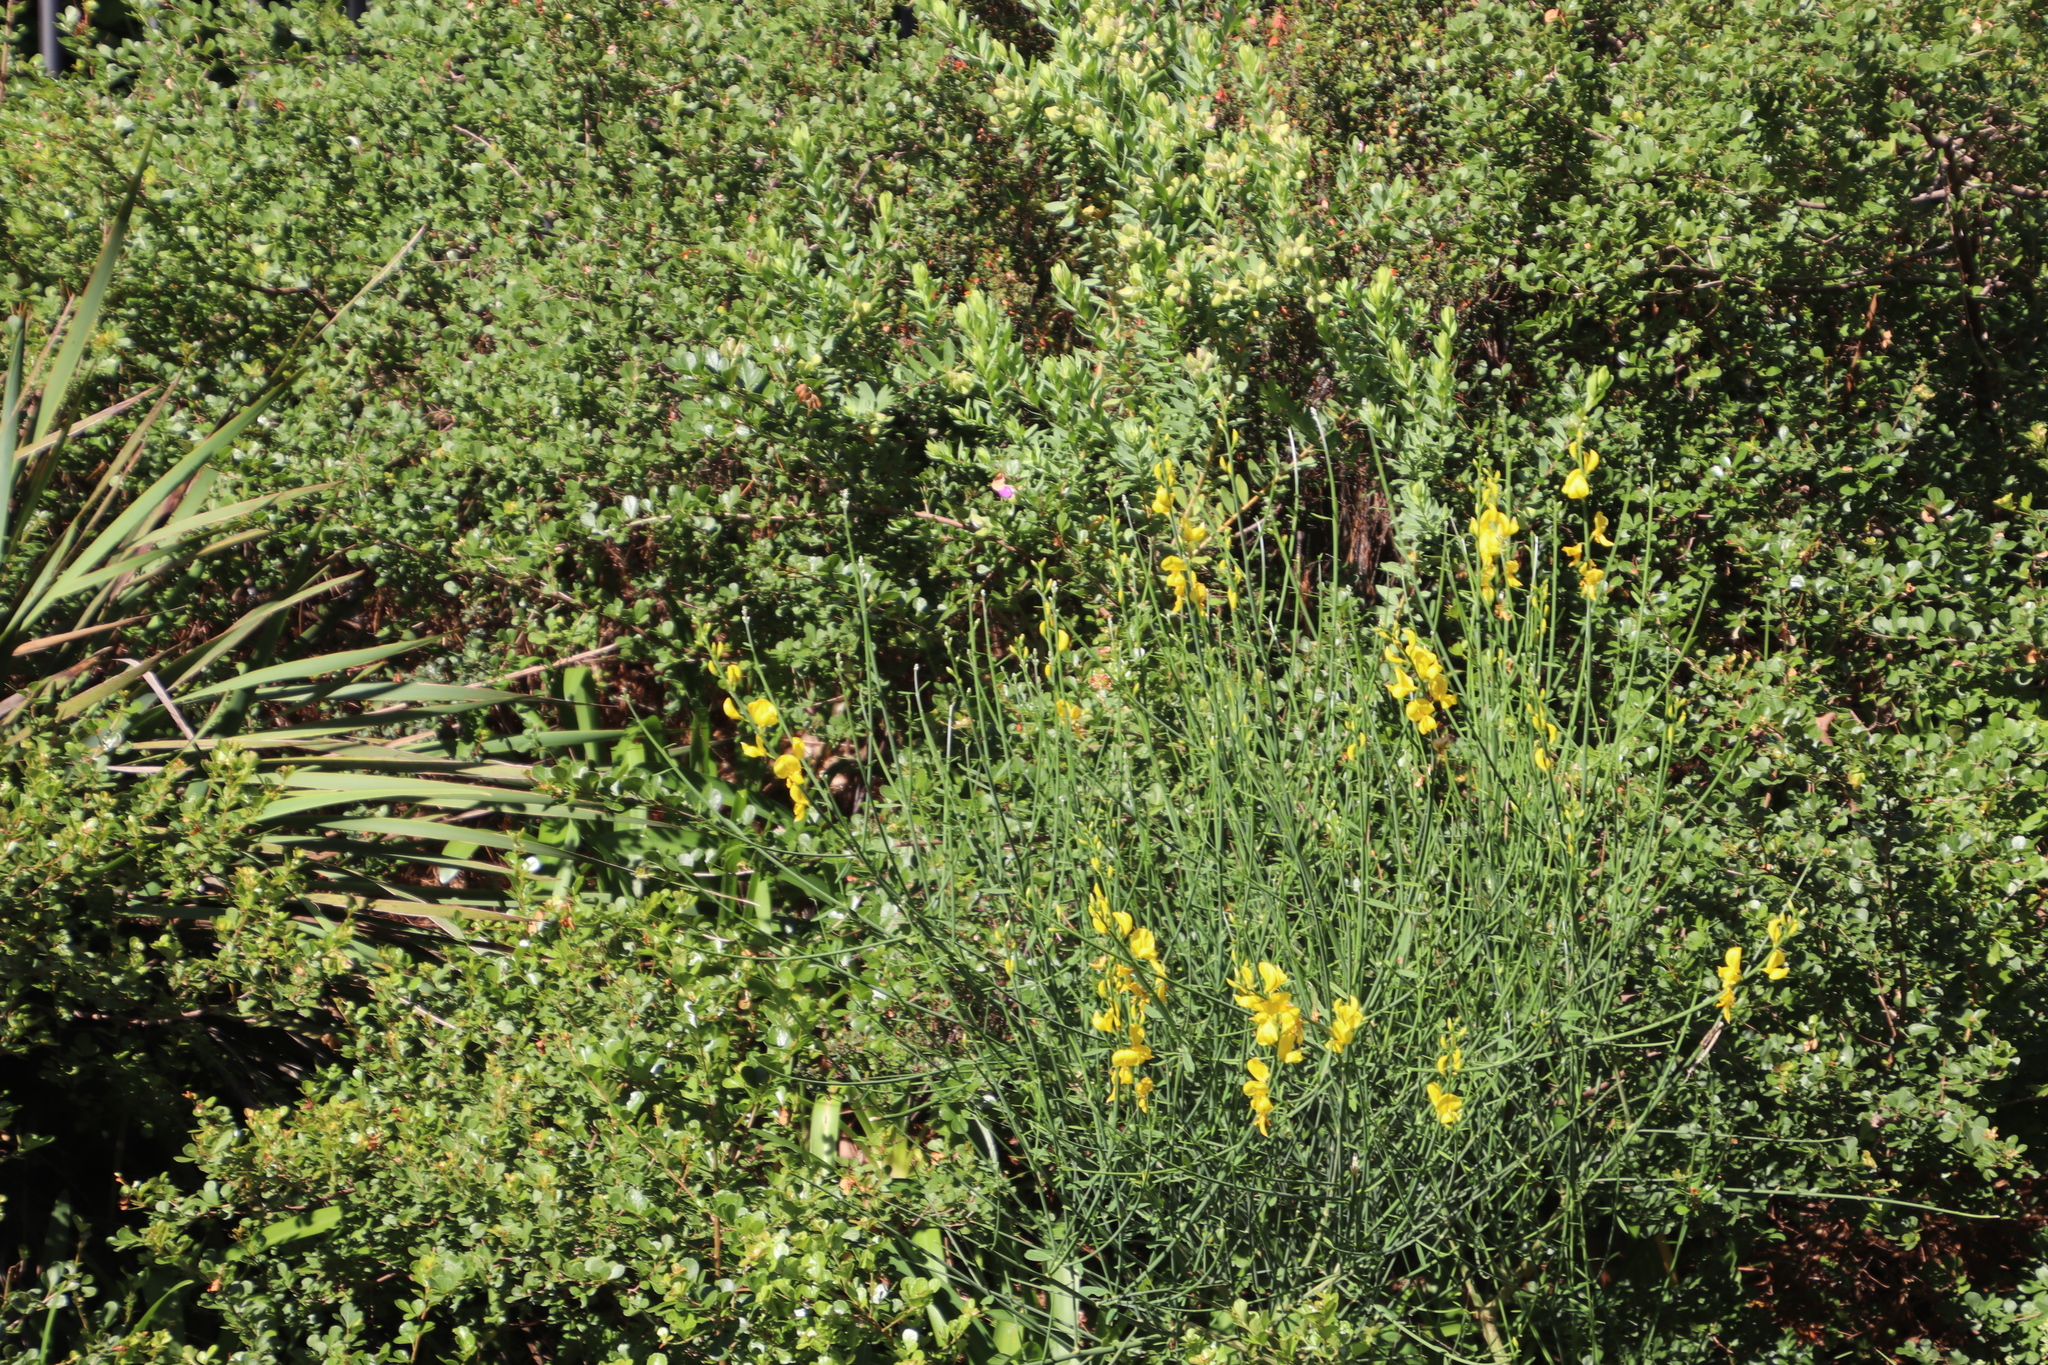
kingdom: Plantae
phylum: Tracheophyta
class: Magnoliopsida
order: Fabales
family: Fabaceae
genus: Spartium
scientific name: Spartium junceum
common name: Spanish broom
